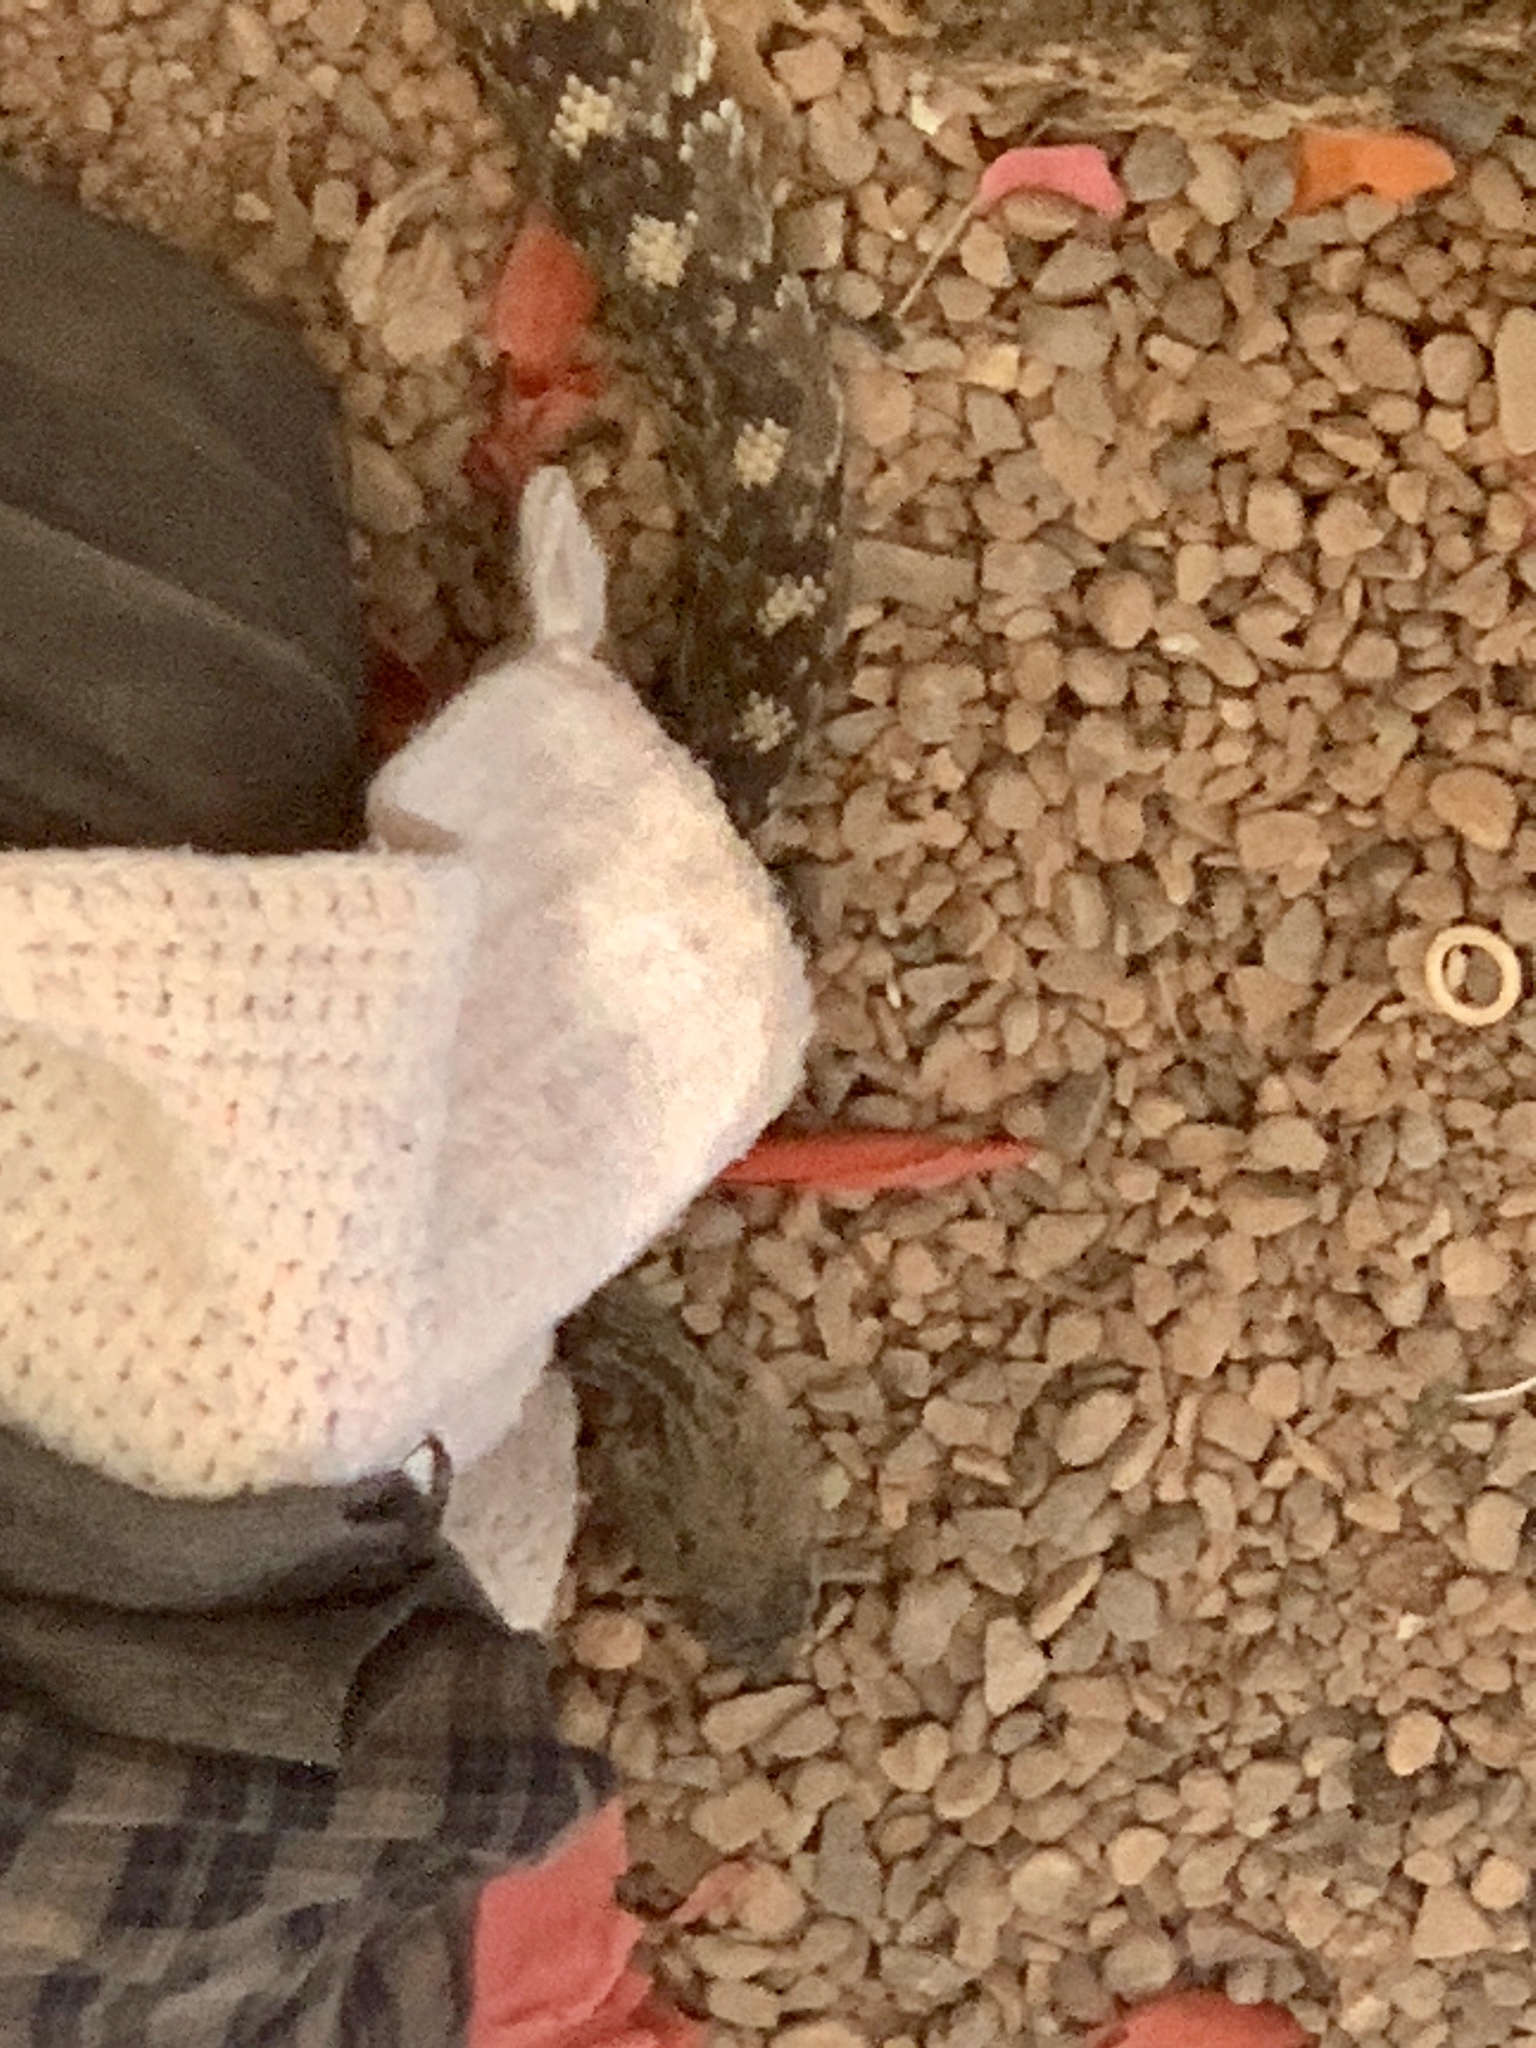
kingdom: Animalia
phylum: Chordata
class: Squamata
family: Viperidae
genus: Crotalus
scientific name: Crotalus ornatus
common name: Black-tailed rattlesnake
